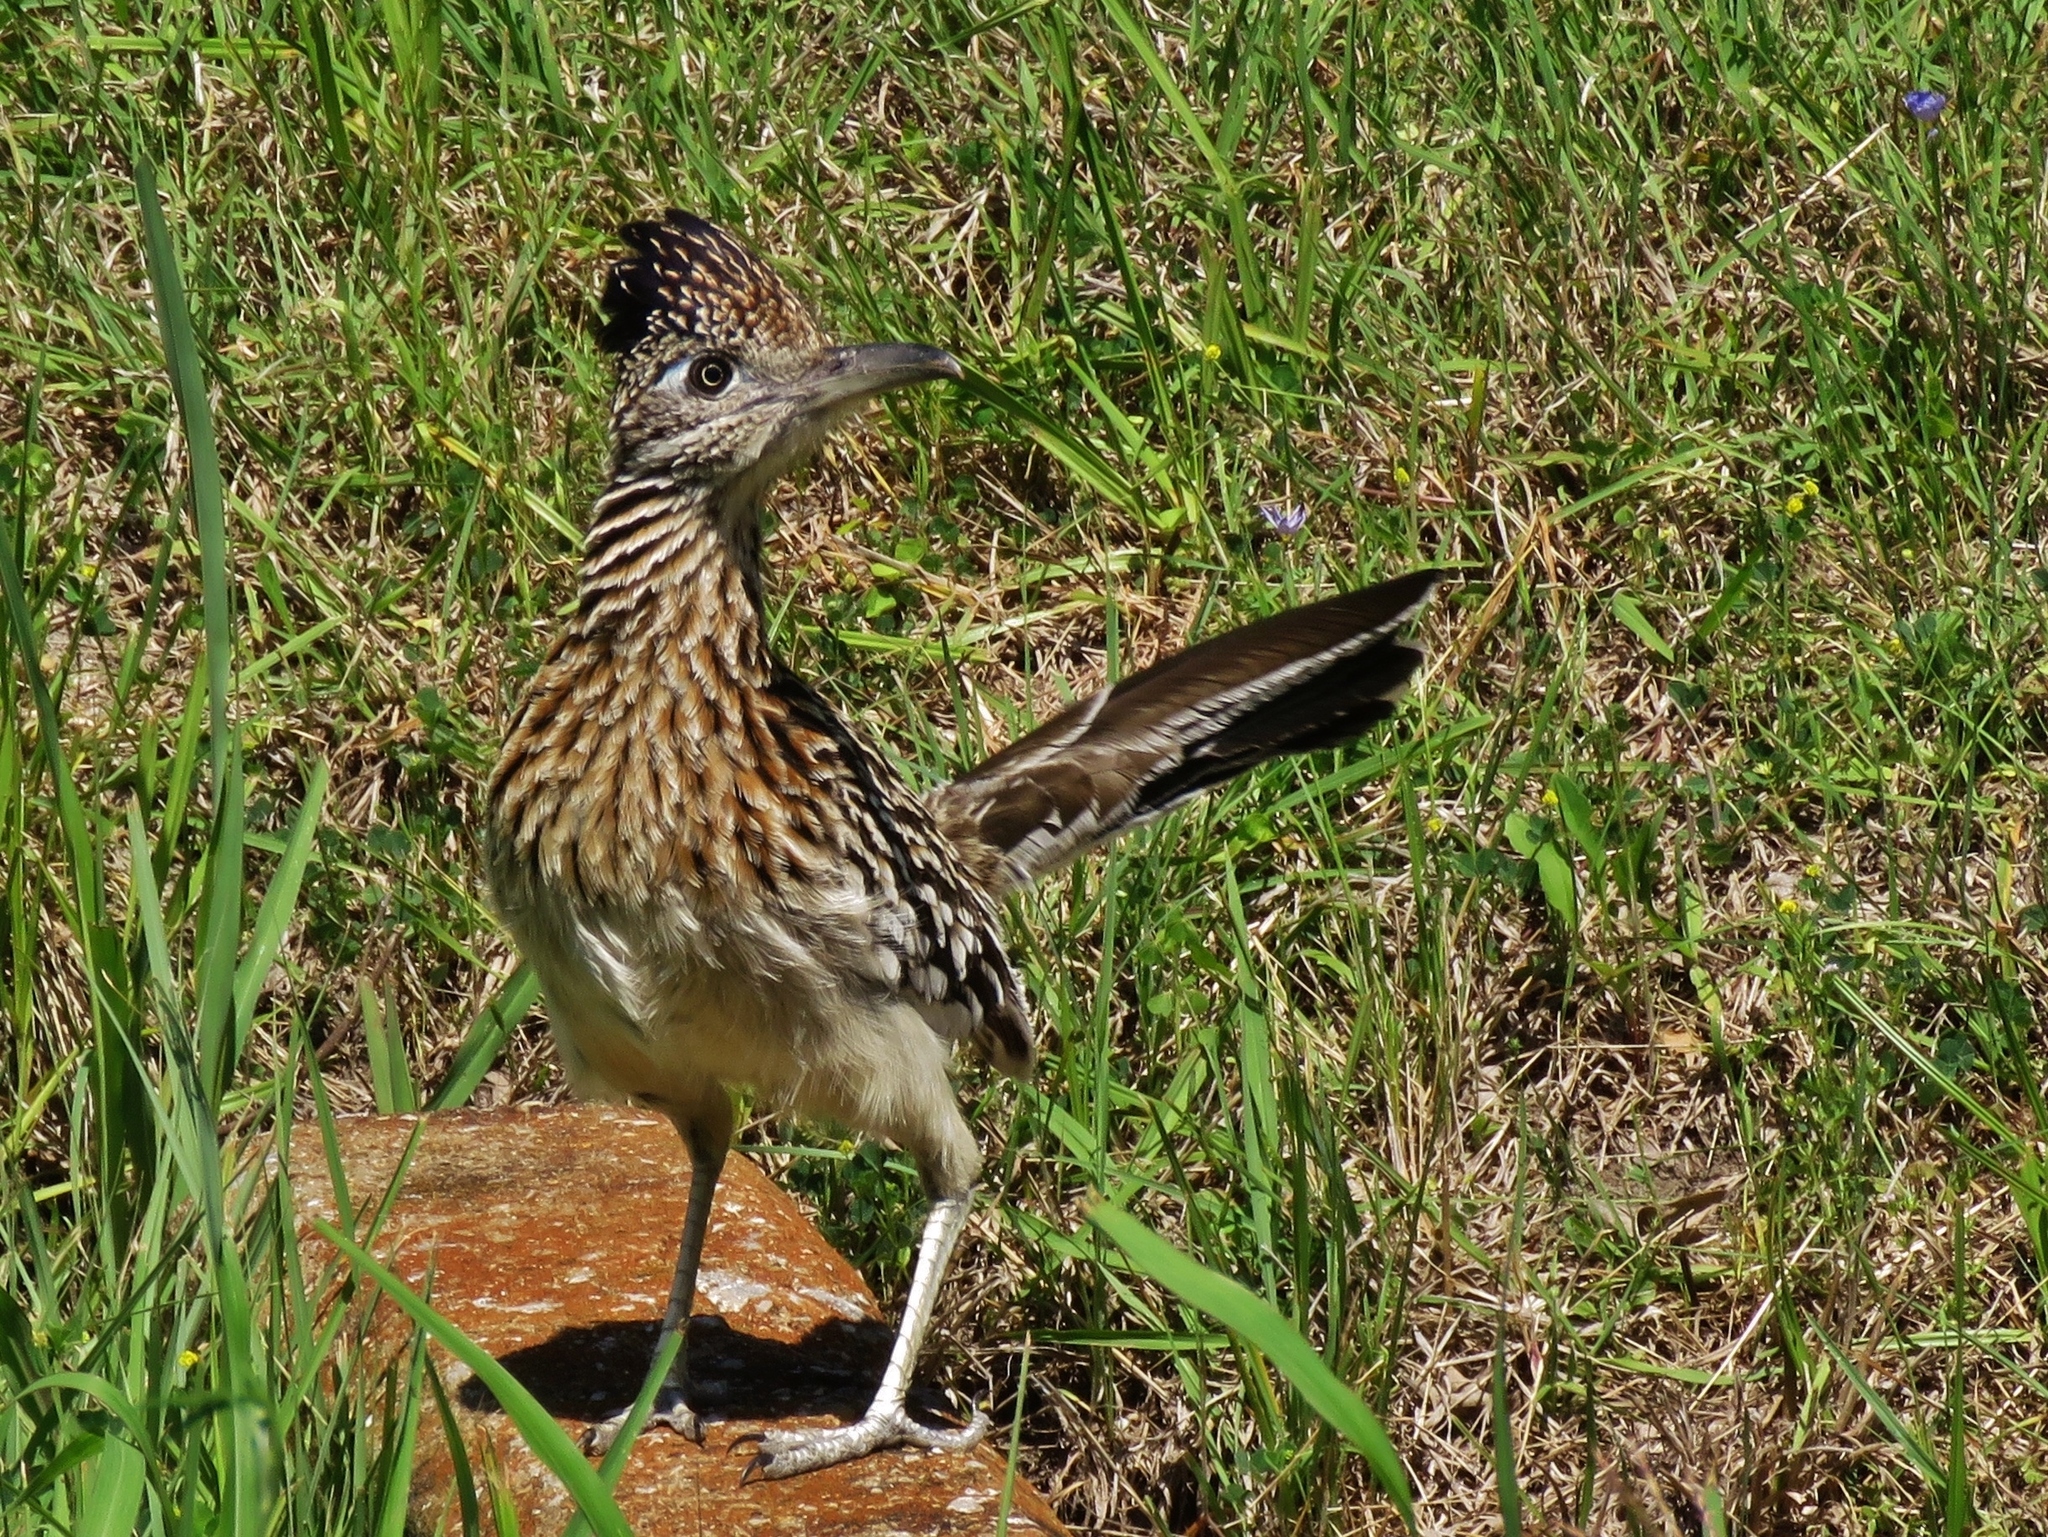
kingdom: Animalia
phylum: Chordata
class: Aves
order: Cuculiformes
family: Cuculidae
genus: Geococcyx
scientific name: Geococcyx californianus
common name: Greater roadrunner
